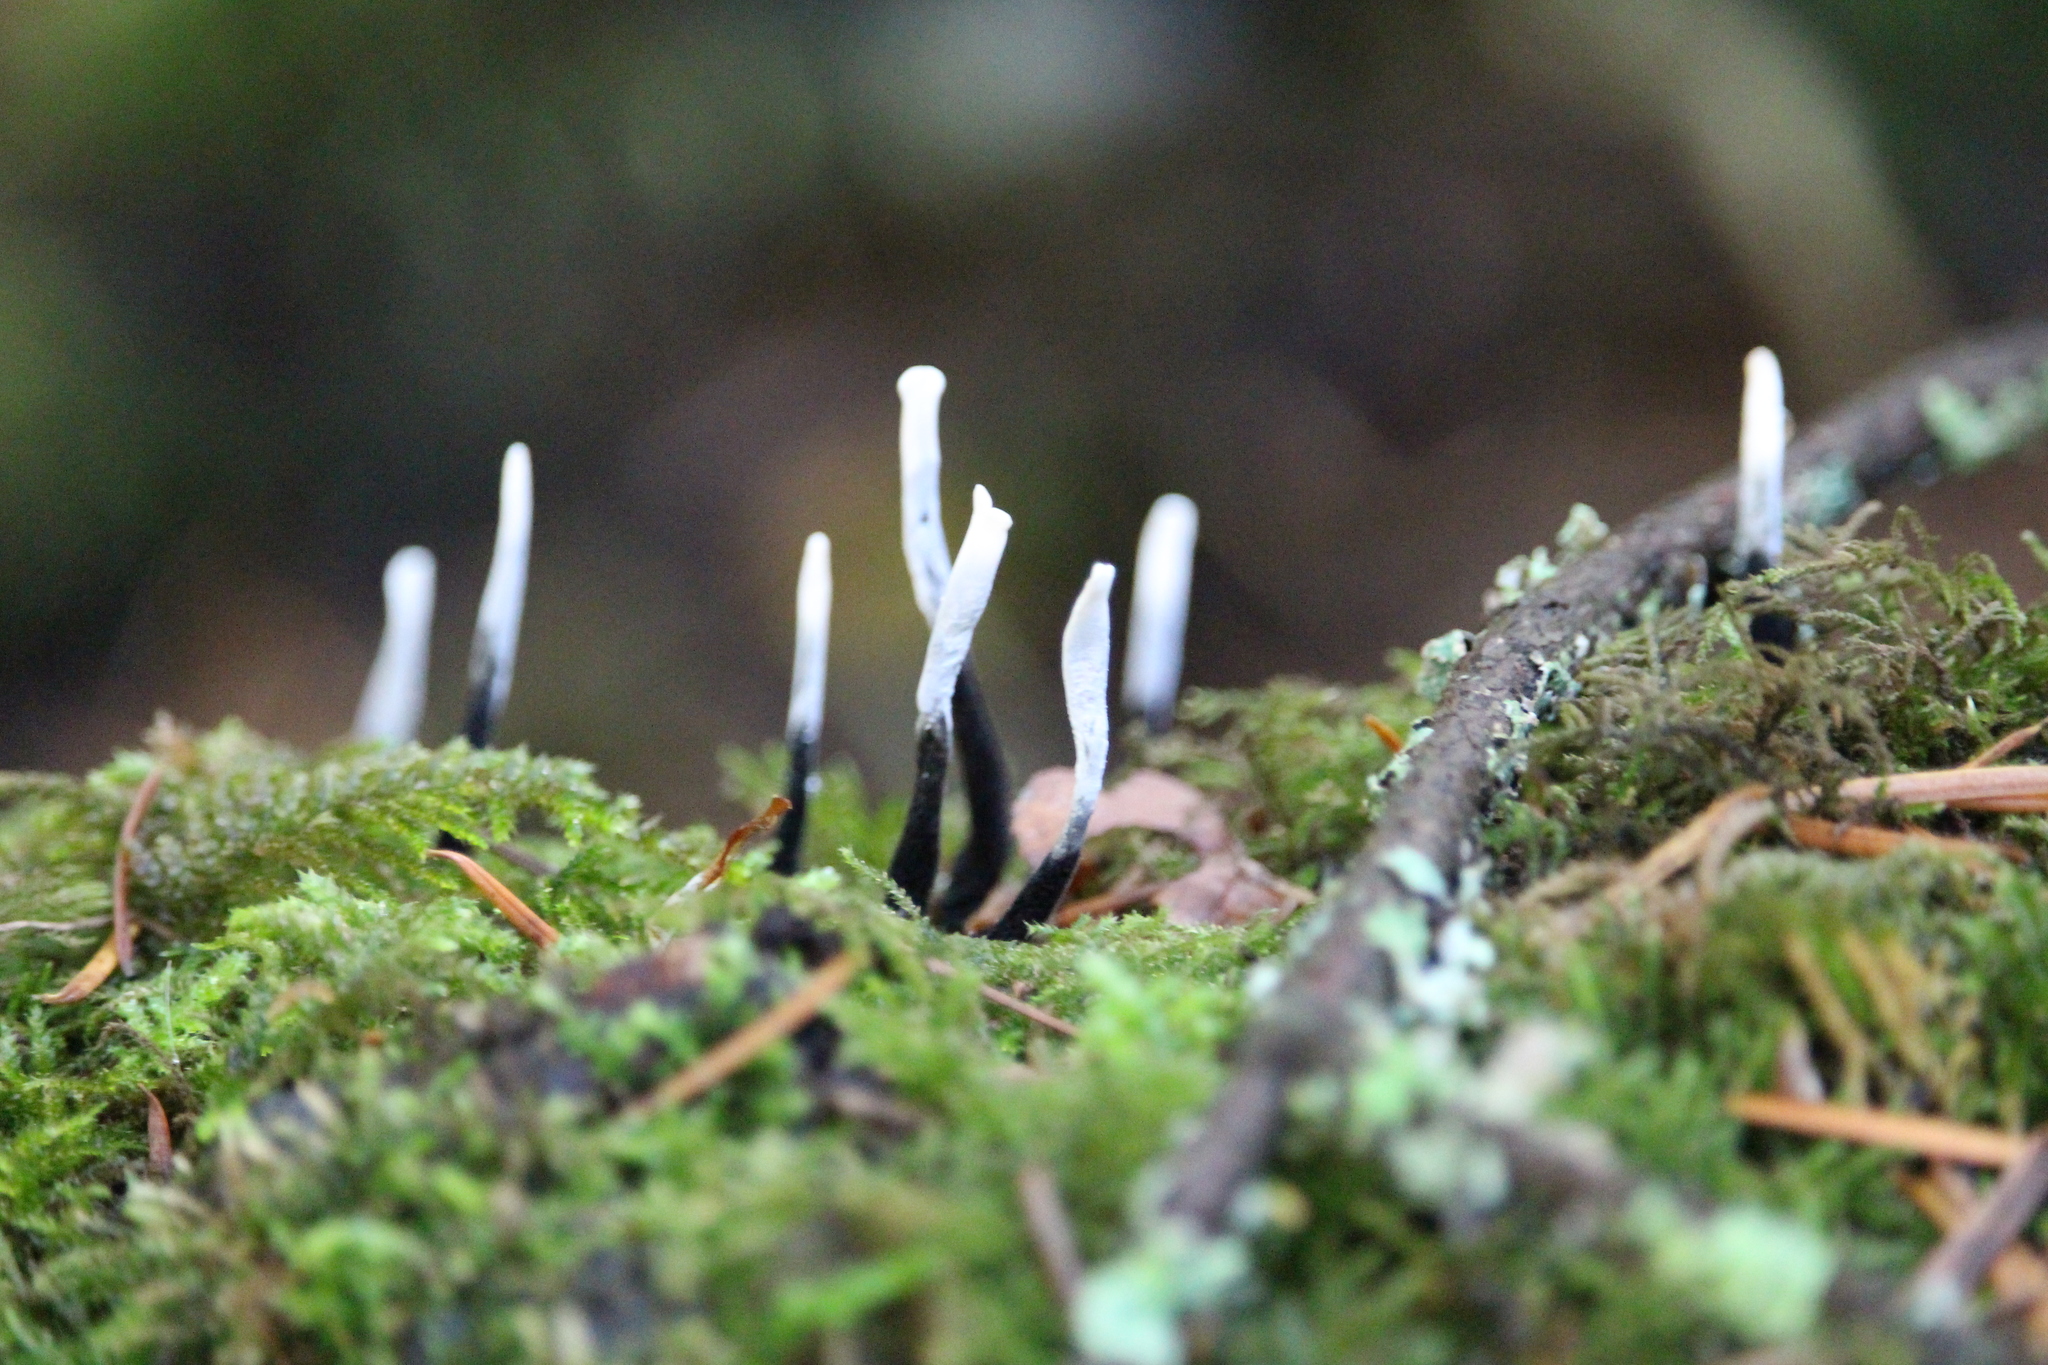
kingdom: Fungi
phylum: Ascomycota
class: Sordariomycetes
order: Xylariales
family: Xylariaceae
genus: Xylaria
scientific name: Xylaria hypoxylon
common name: Candle-snuff fungus
